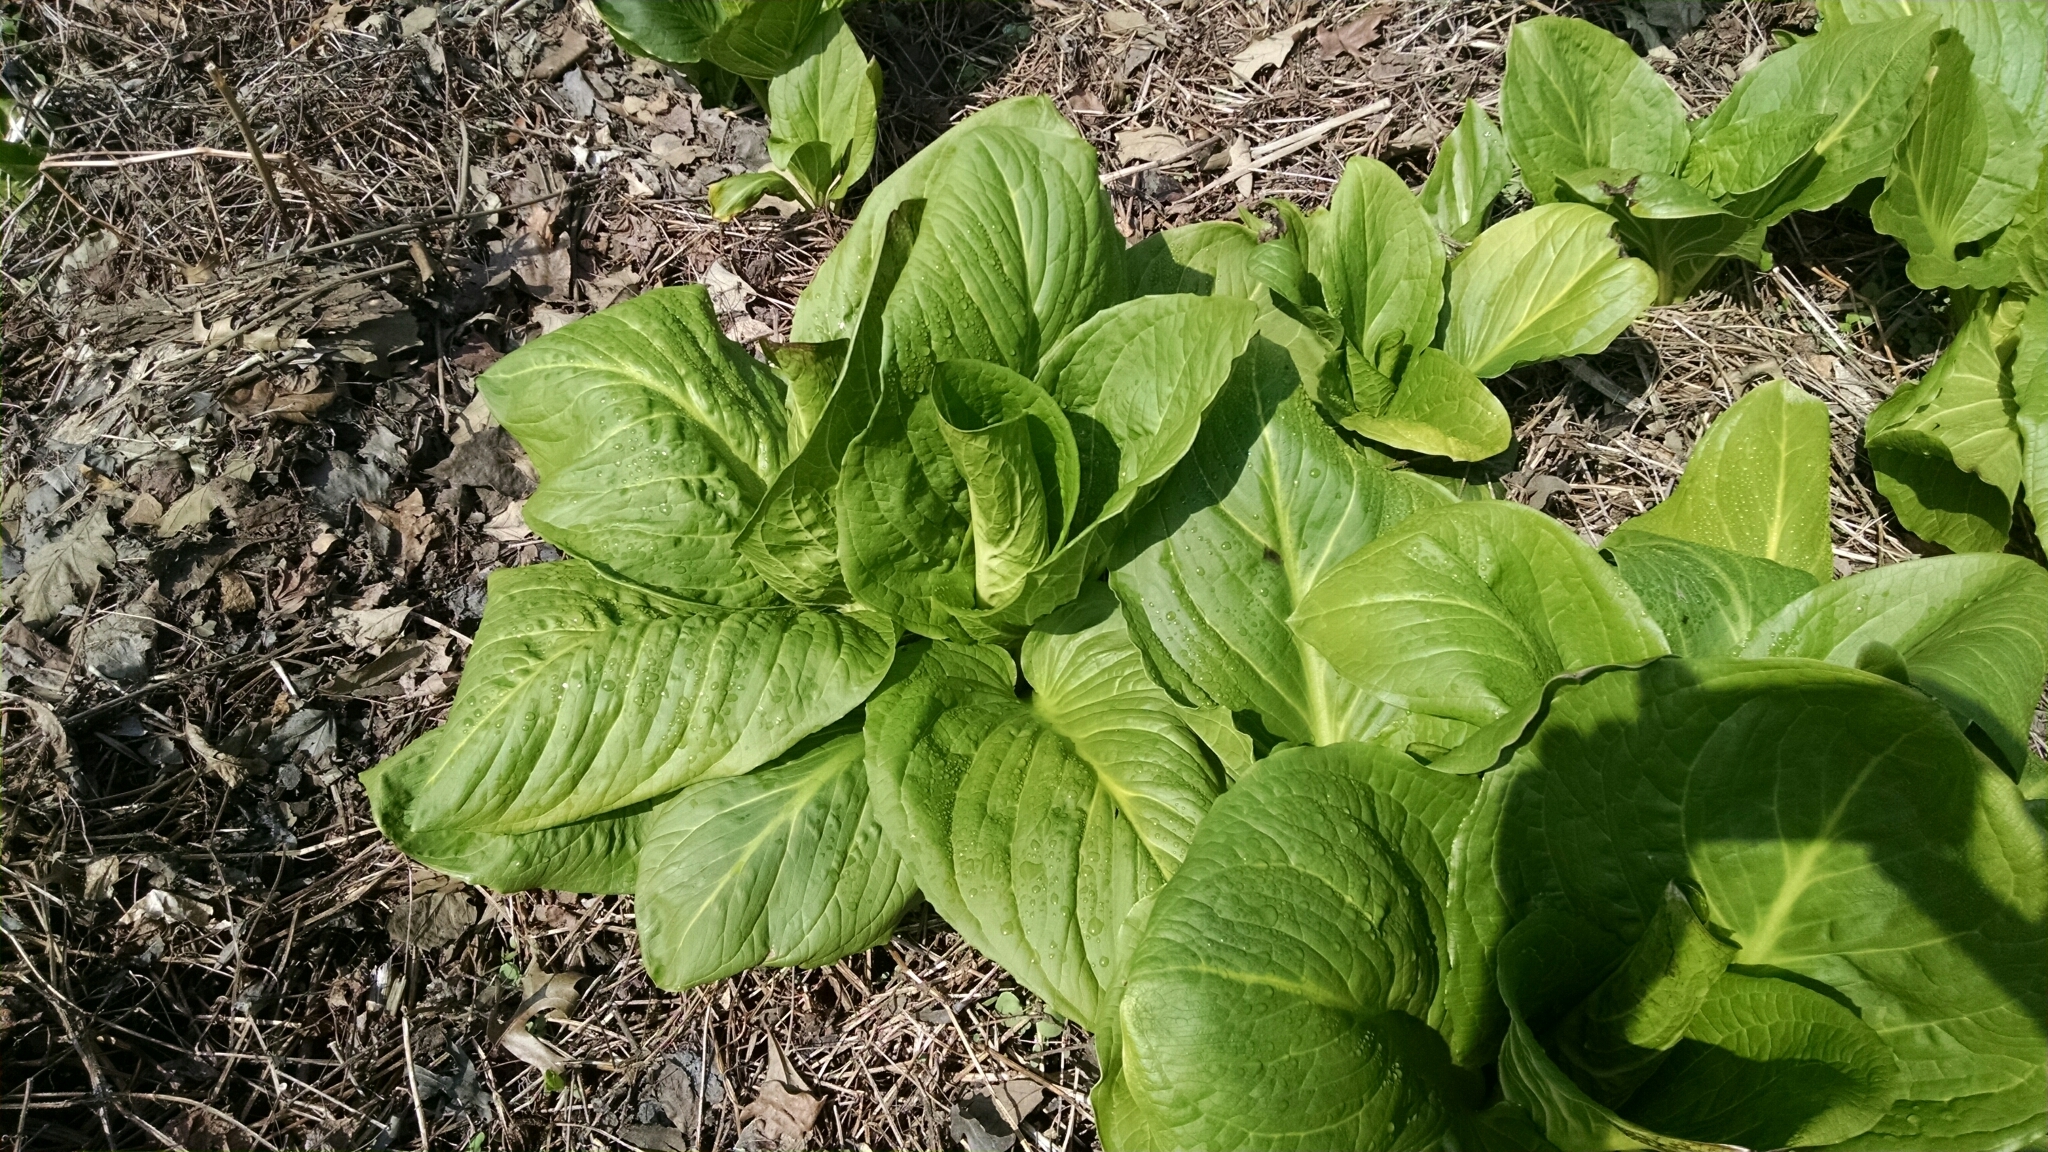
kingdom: Plantae
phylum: Tracheophyta
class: Liliopsida
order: Alismatales
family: Araceae
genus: Symplocarpus
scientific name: Symplocarpus foetidus
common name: Eastern skunk cabbage
